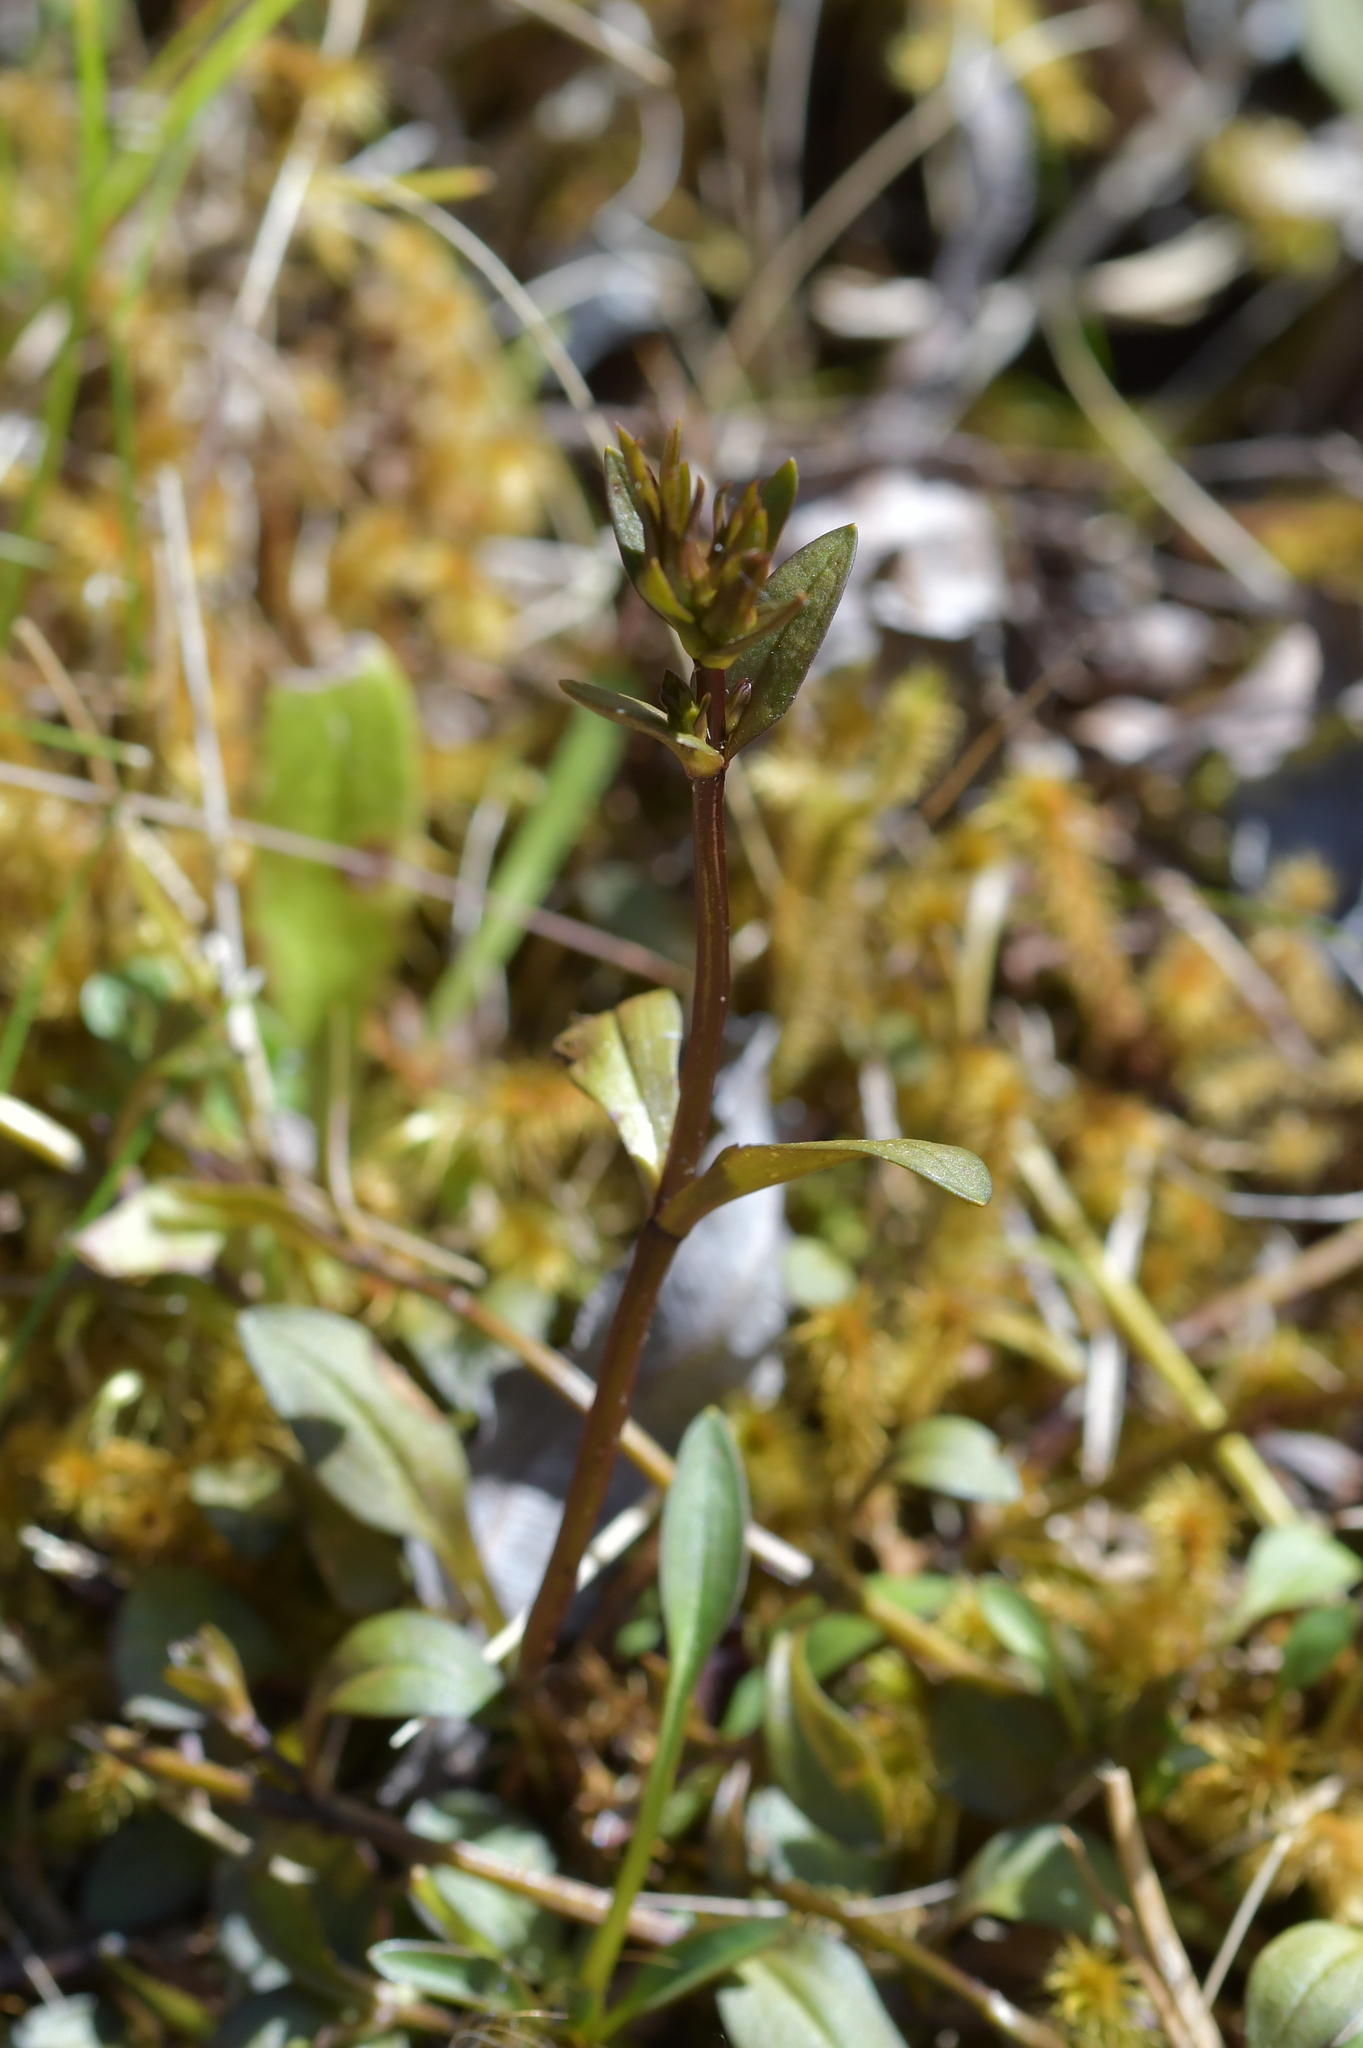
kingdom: Plantae
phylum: Tracheophyta
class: Magnoliopsida
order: Gentianales
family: Gentianaceae
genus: Gentianella
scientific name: Gentianella grisebachii
